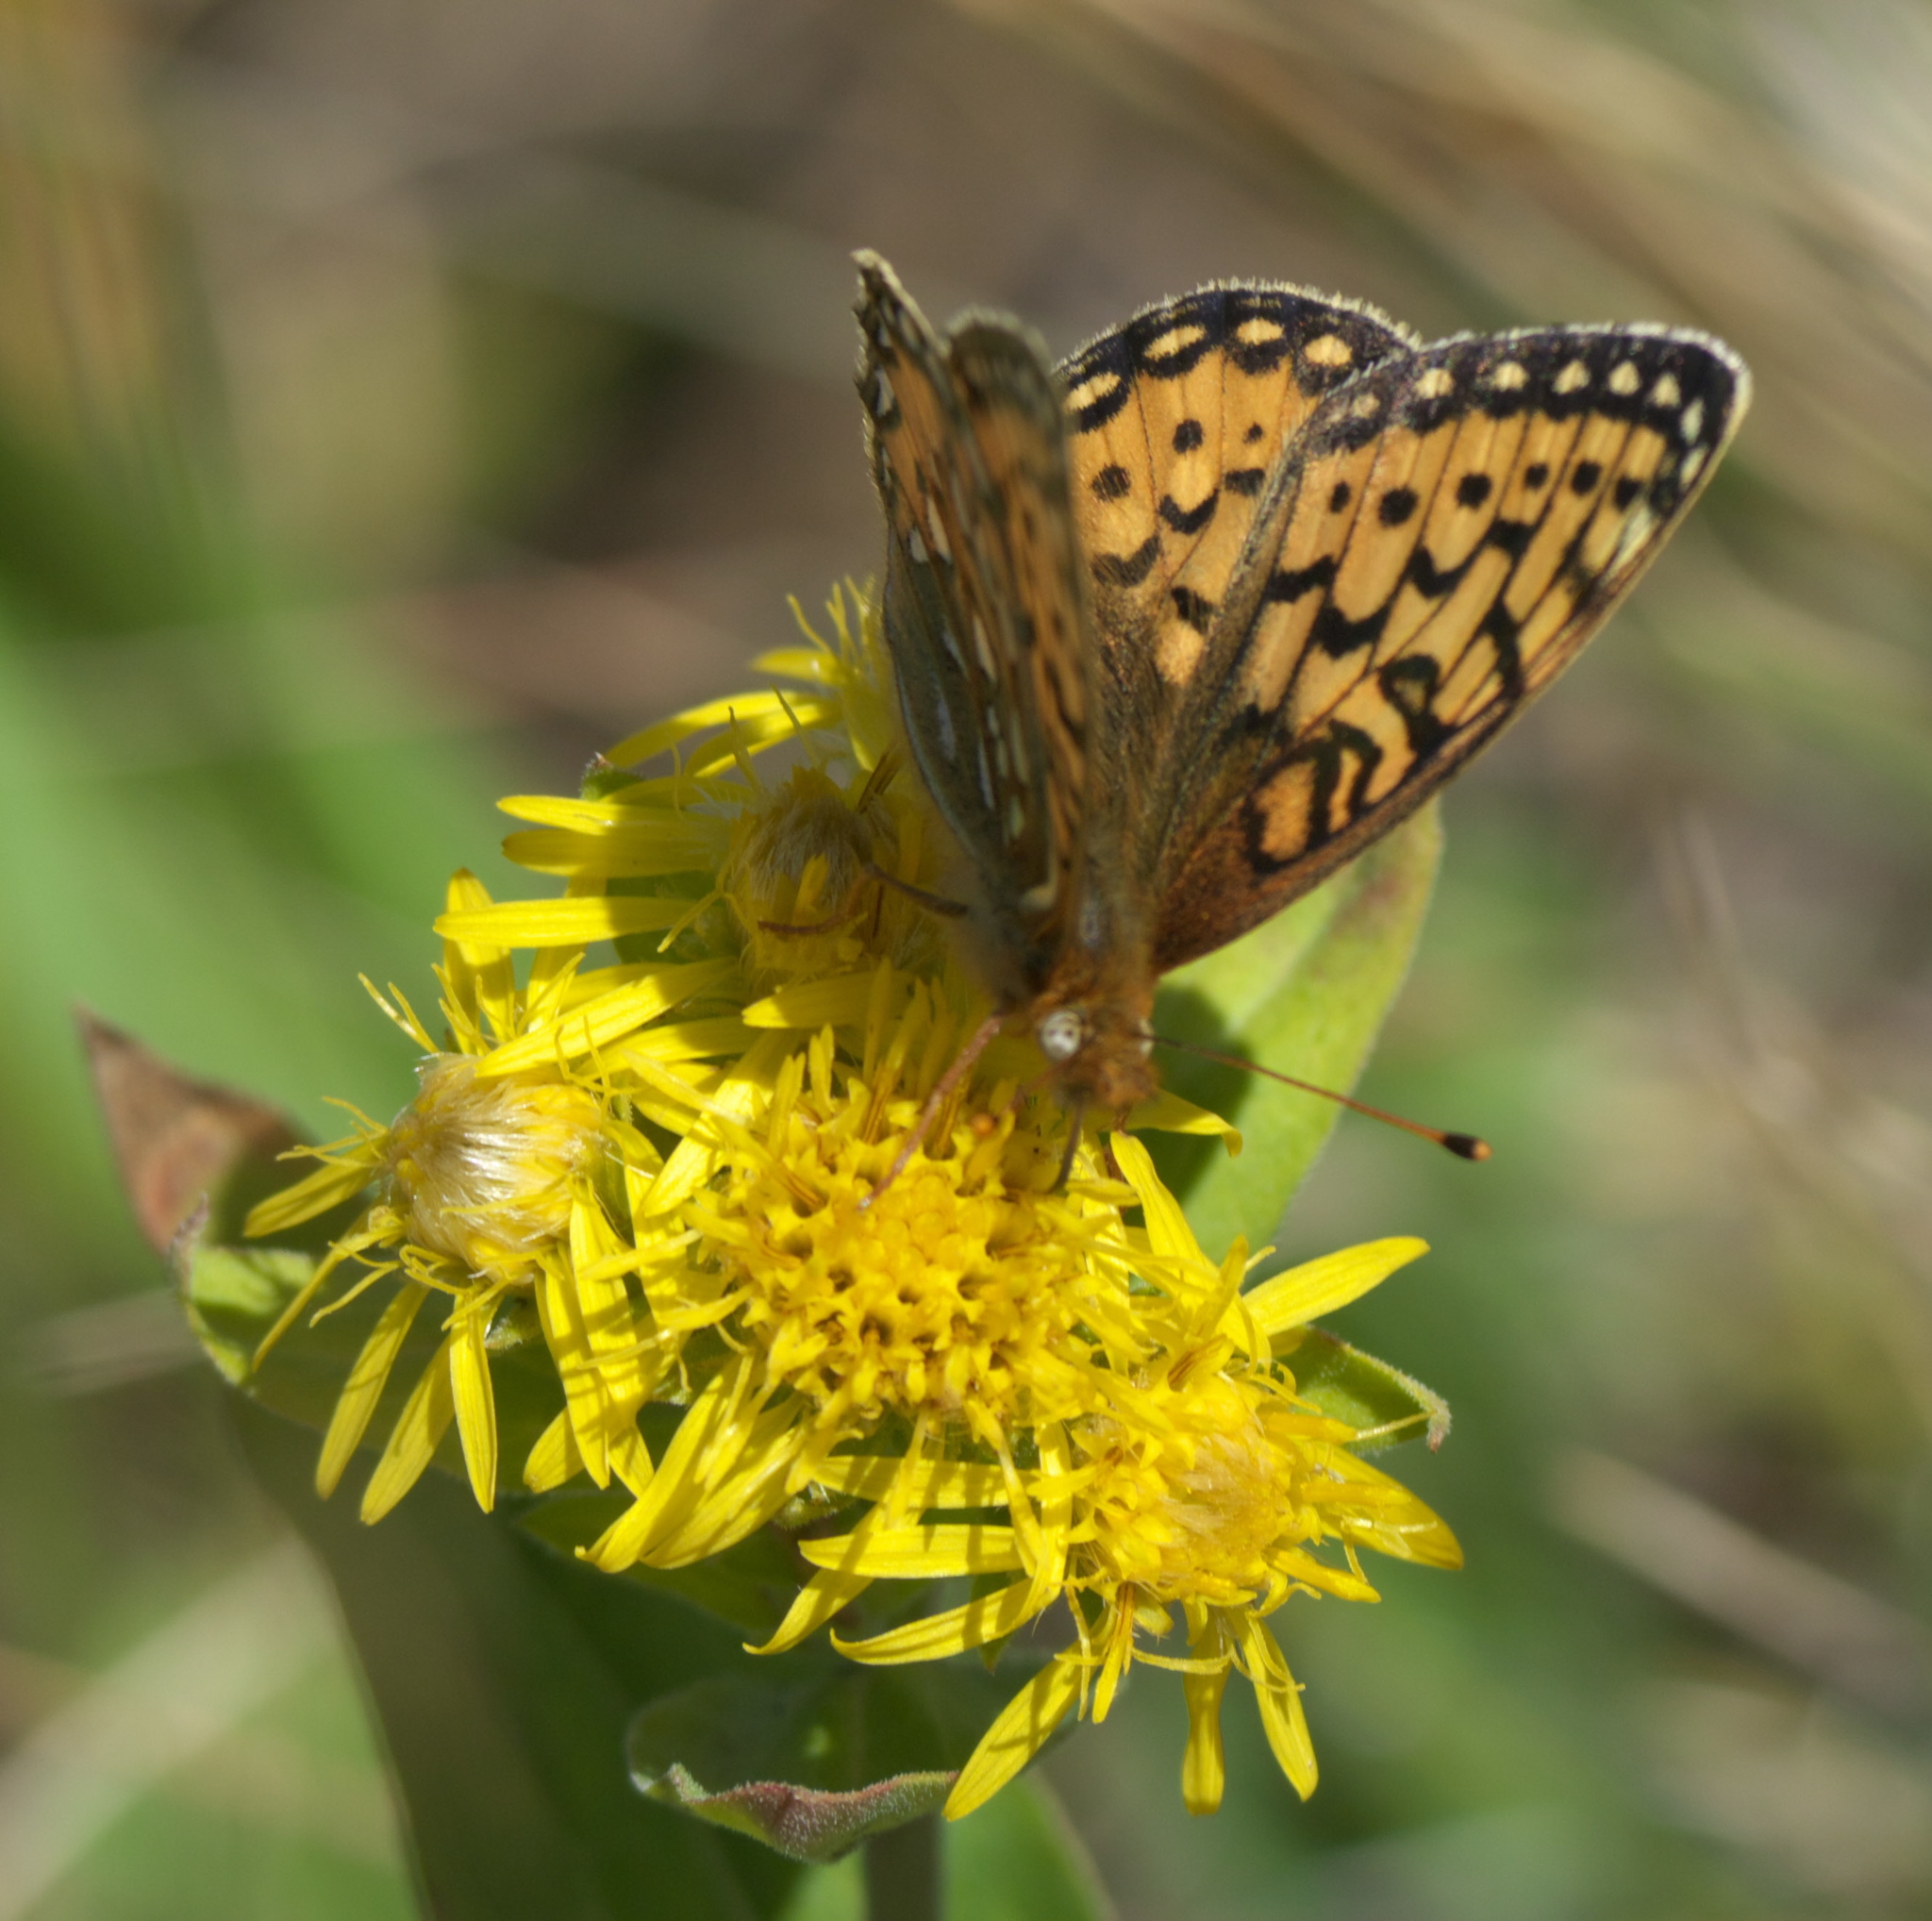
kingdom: Animalia
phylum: Arthropoda
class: Insecta
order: Lepidoptera
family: Nymphalidae
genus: Speyeria
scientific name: Speyeria mormonia
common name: Mormon fritillary
